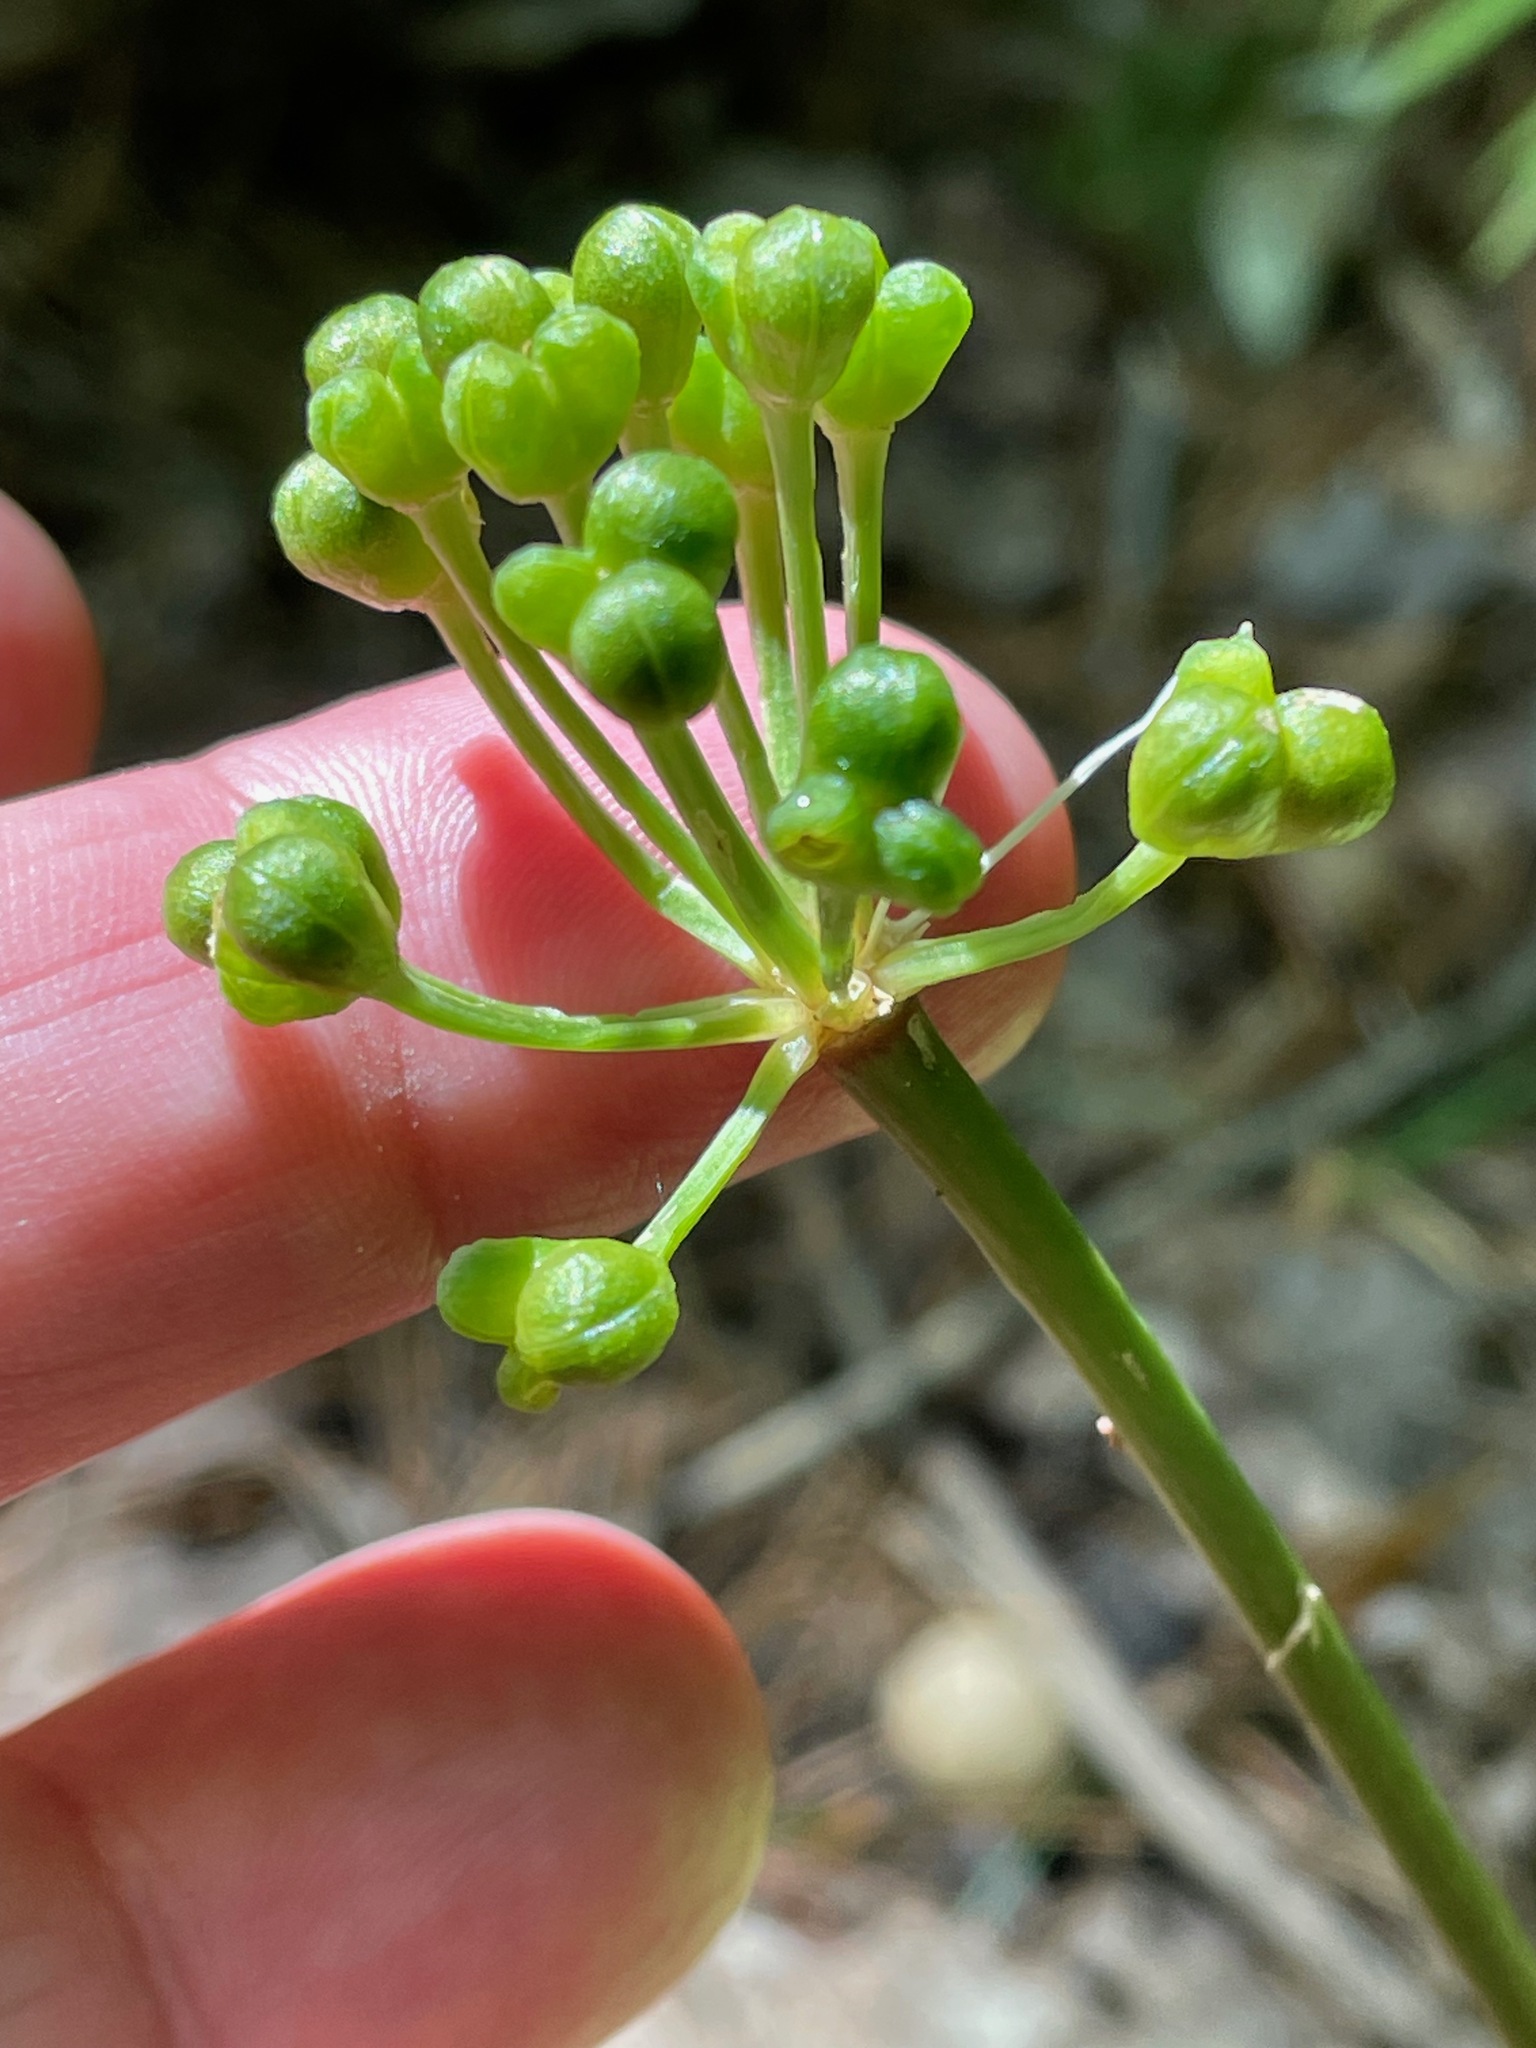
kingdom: Plantae
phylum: Tracheophyta
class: Liliopsida
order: Asparagales
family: Amaryllidaceae
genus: Allium
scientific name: Allium tricoccum
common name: Ramp
